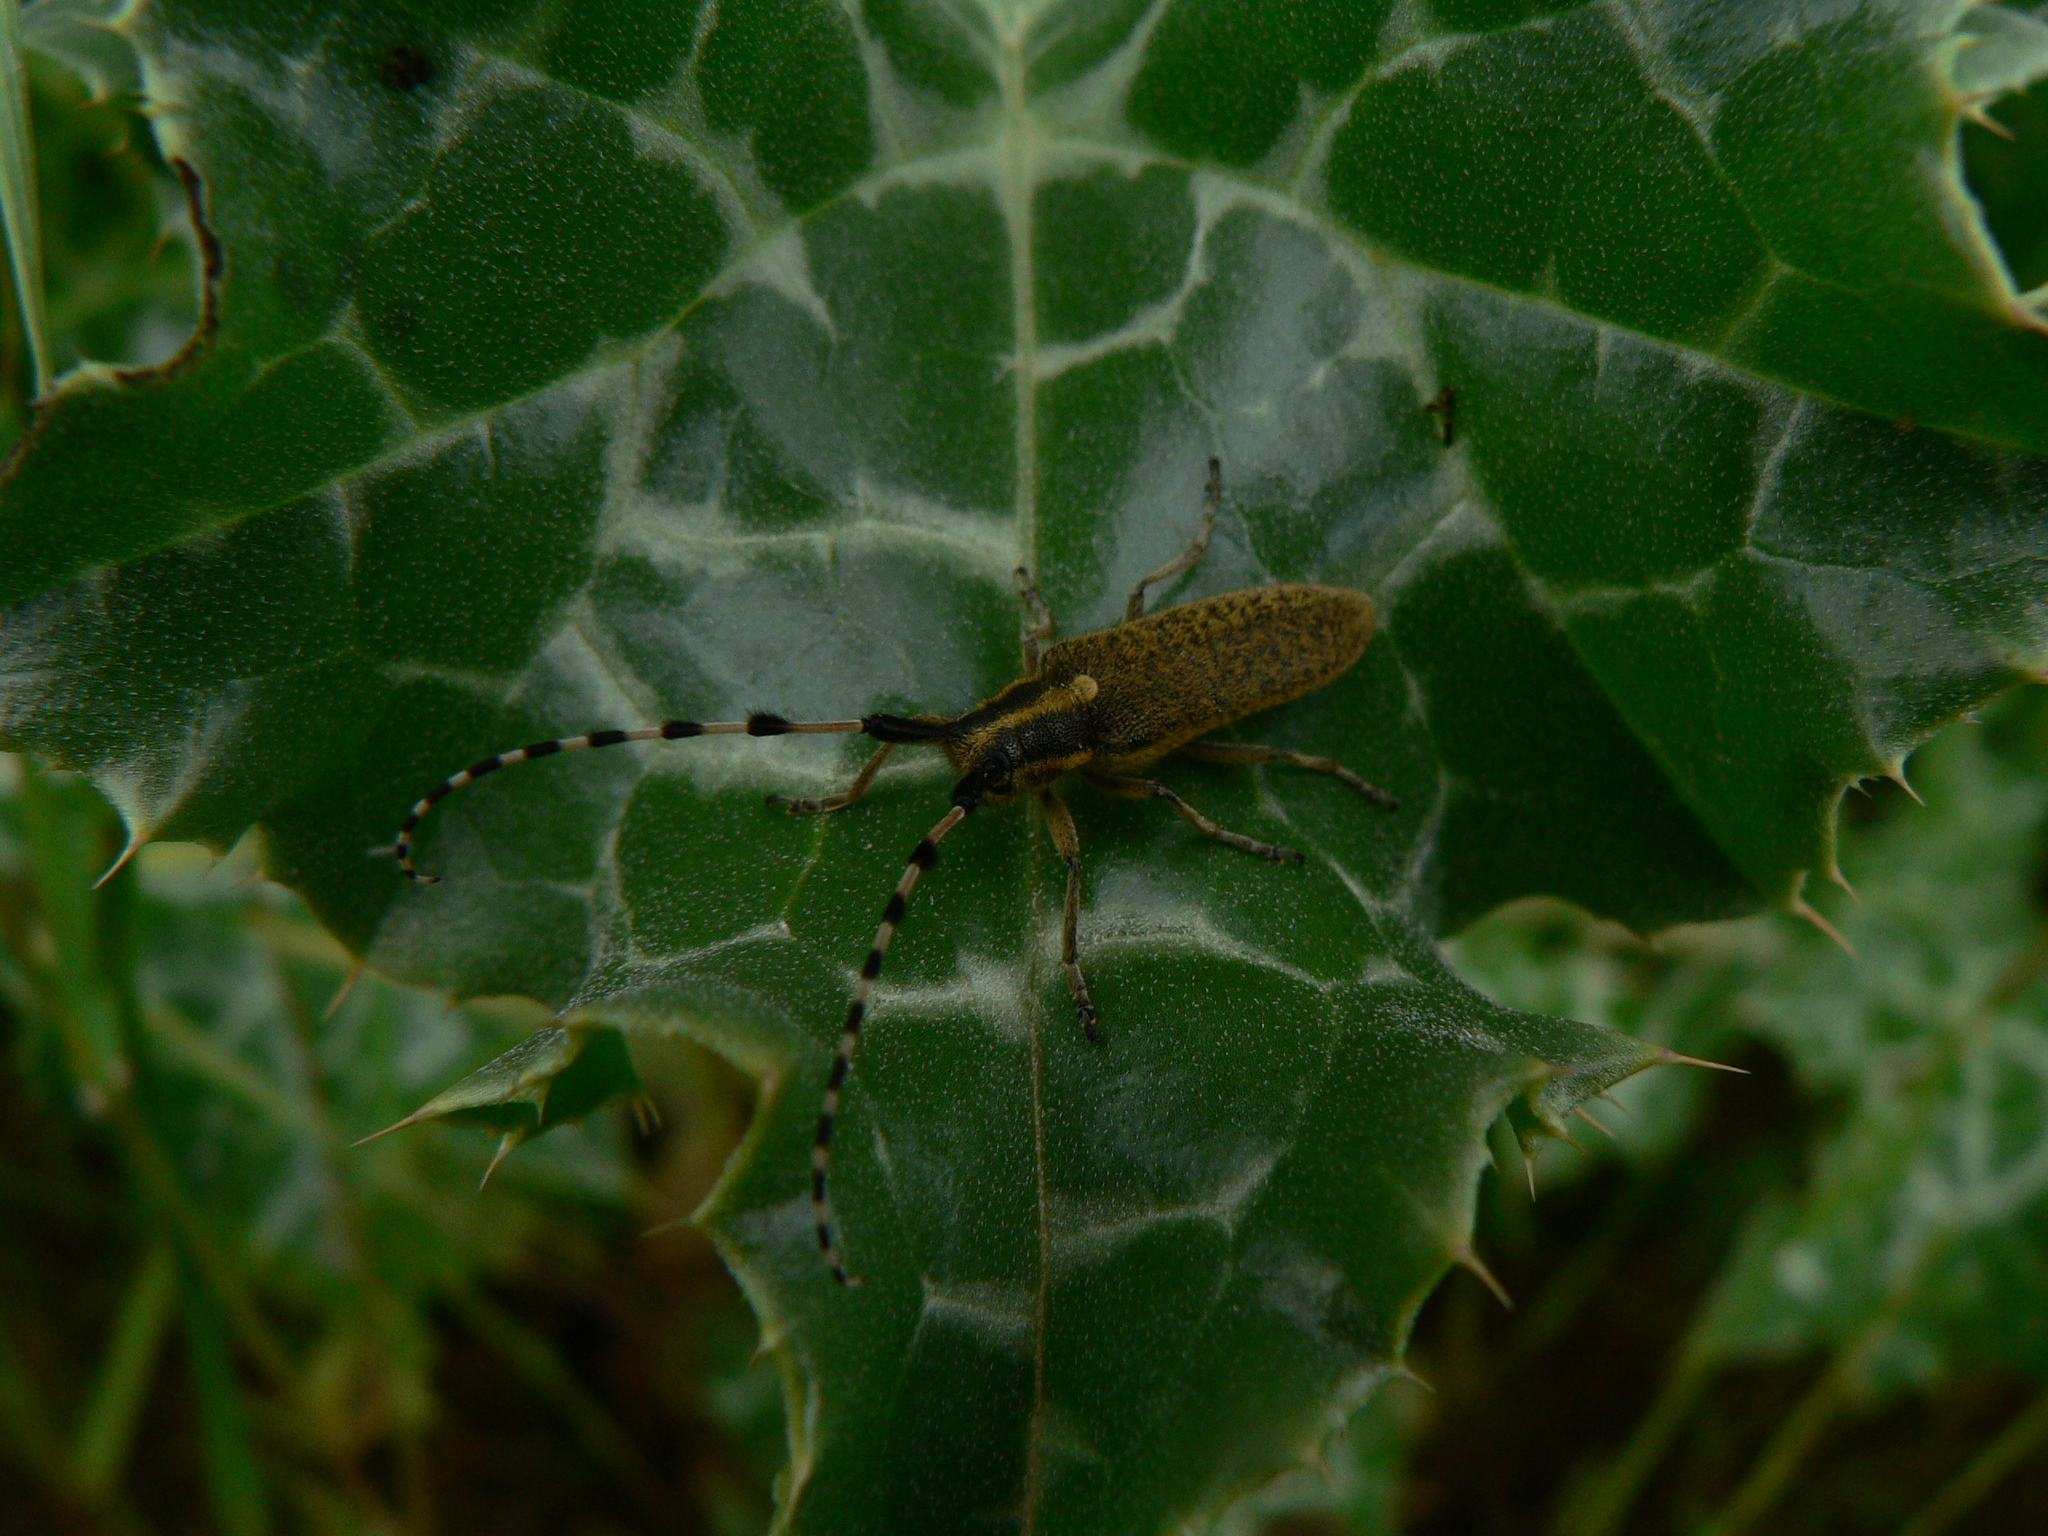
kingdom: Animalia
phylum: Arthropoda
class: Insecta
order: Coleoptera
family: Cerambycidae
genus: Agapanthia
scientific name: Agapanthia dahlii
